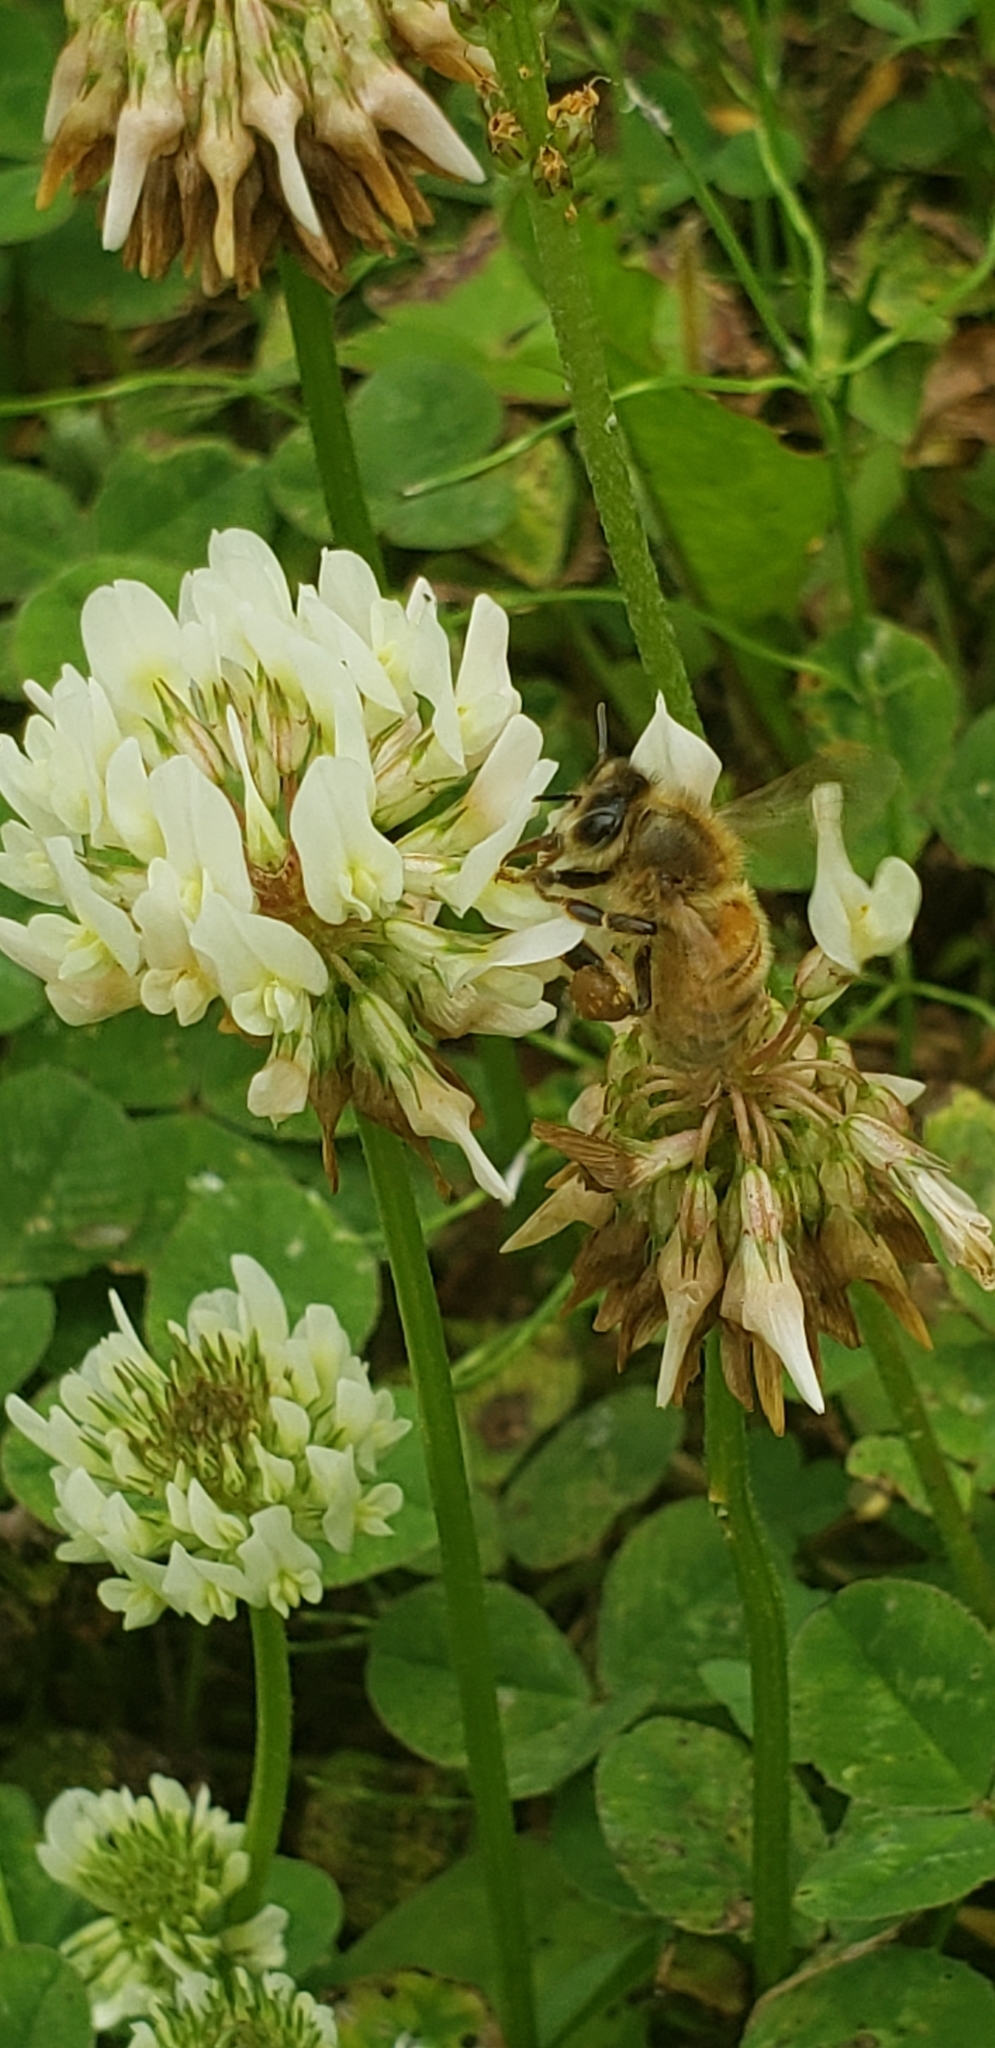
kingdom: Animalia
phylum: Arthropoda
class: Insecta
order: Hymenoptera
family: Apidae
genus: Apis
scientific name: Apis mellifera
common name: Honey bee
